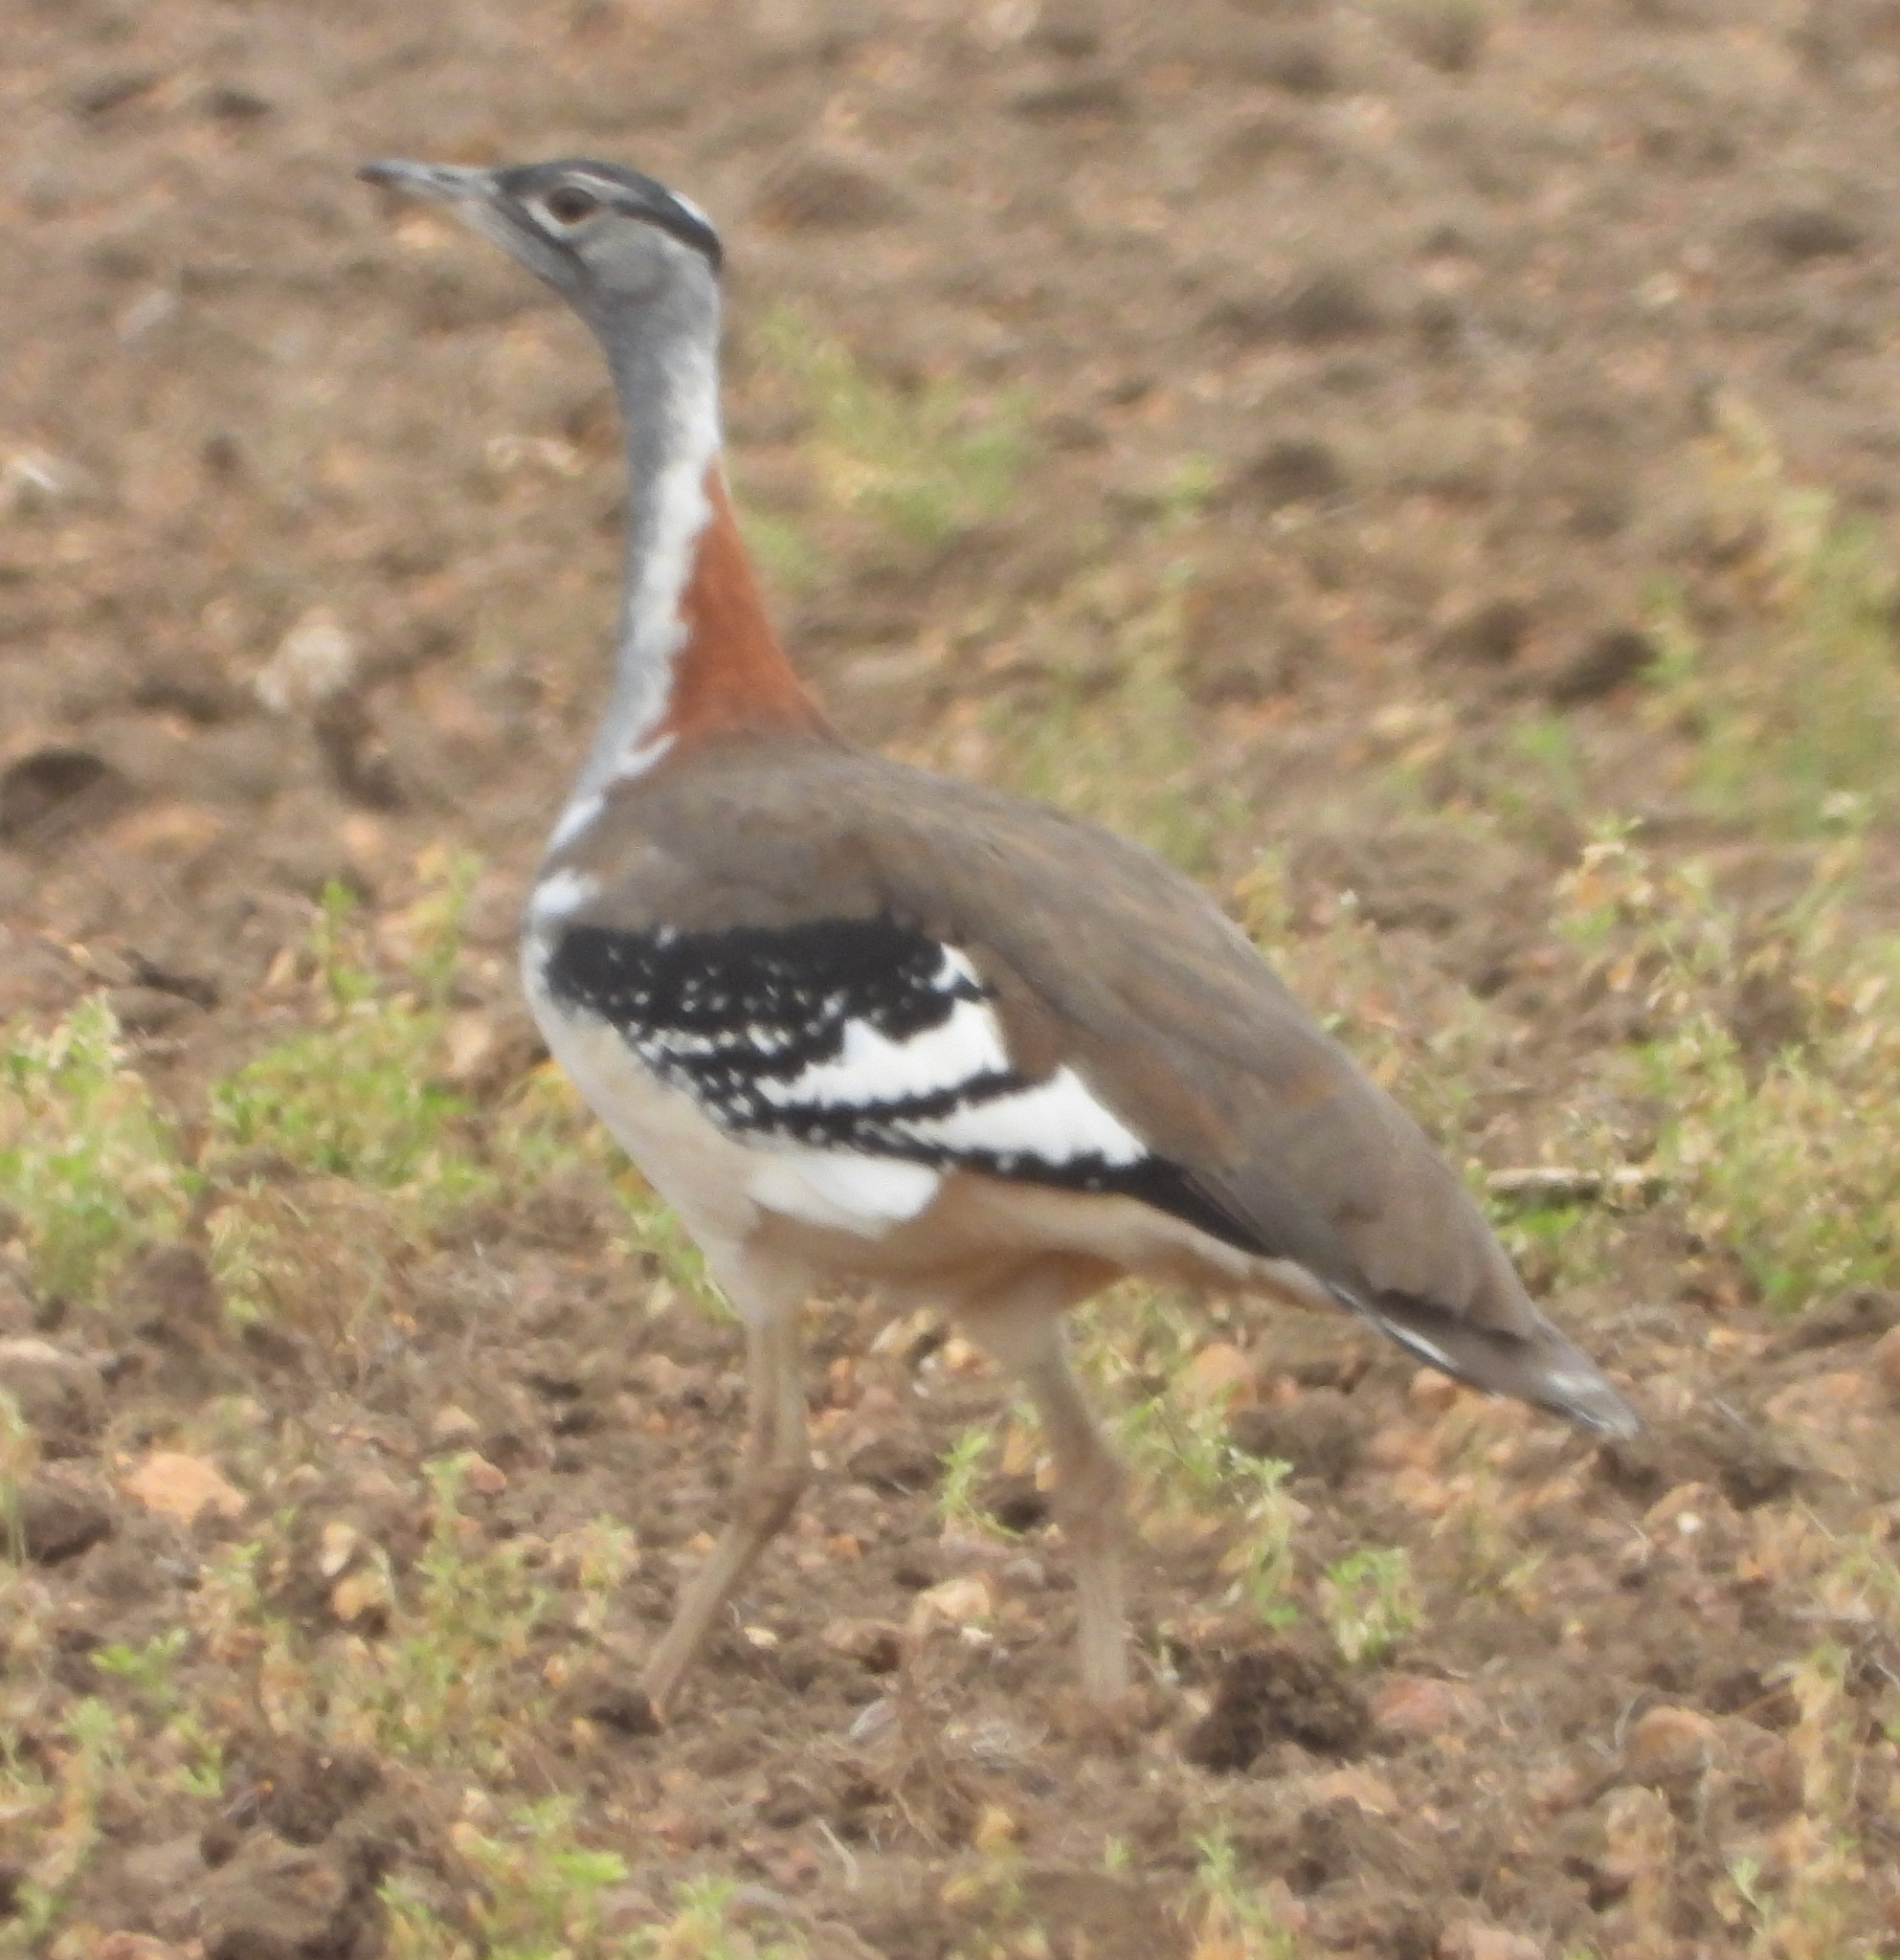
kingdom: Animalia
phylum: Chordata
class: Aves
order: Otidiformes
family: Otididae
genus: Neotis
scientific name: Neotis denhami
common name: Denham's bustard
